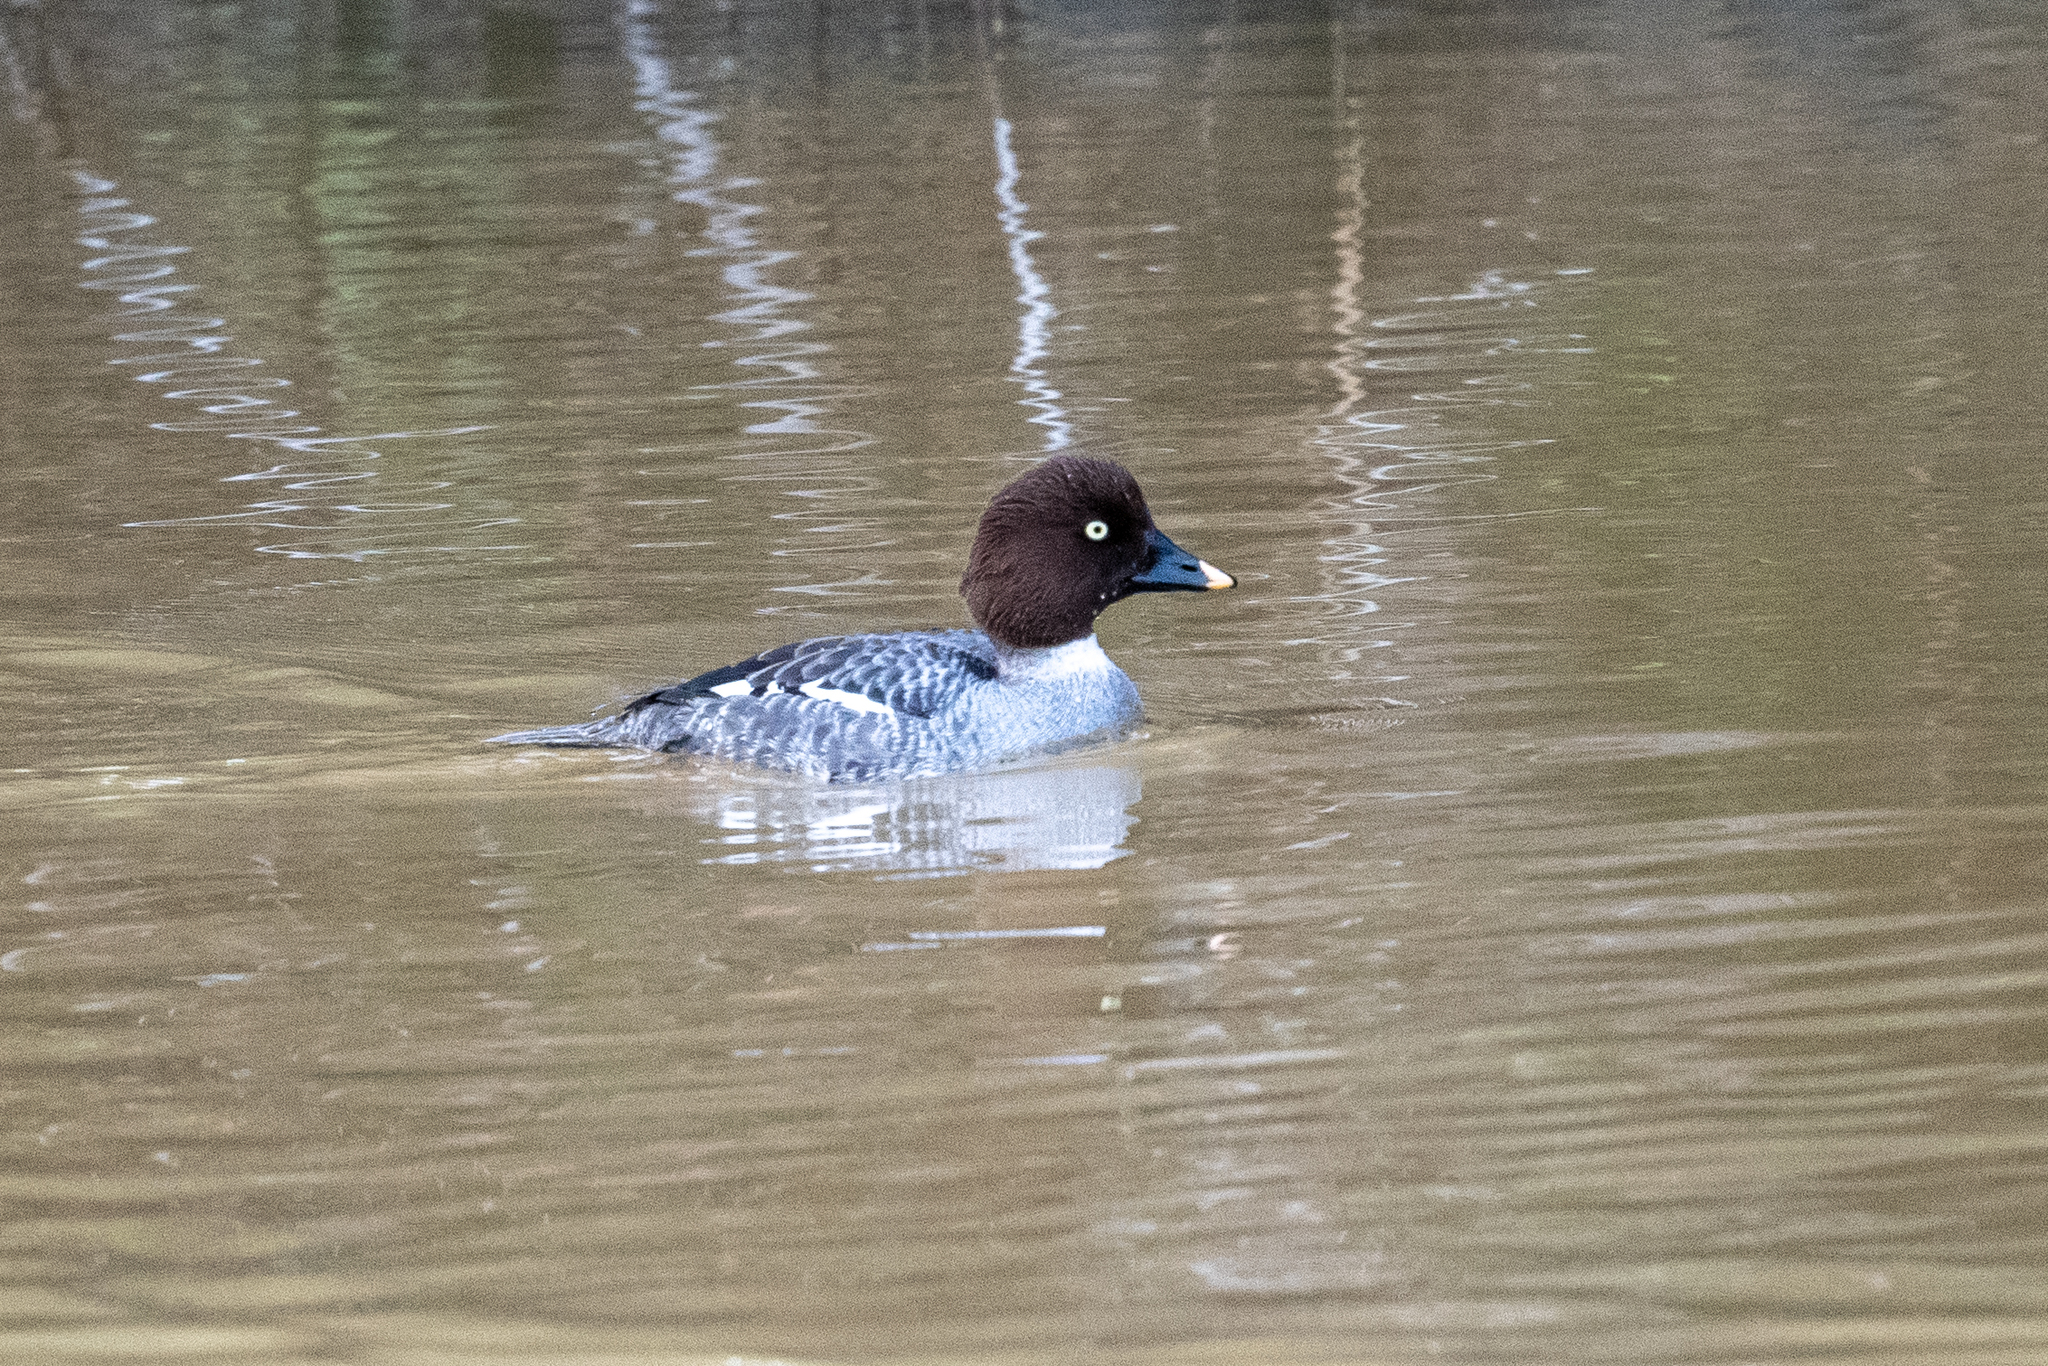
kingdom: Animalia
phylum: Chordata
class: Aves
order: Anseriformes
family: Anatidae
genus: Bucephala
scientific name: Bucephala clangula
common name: Common goldeneye
